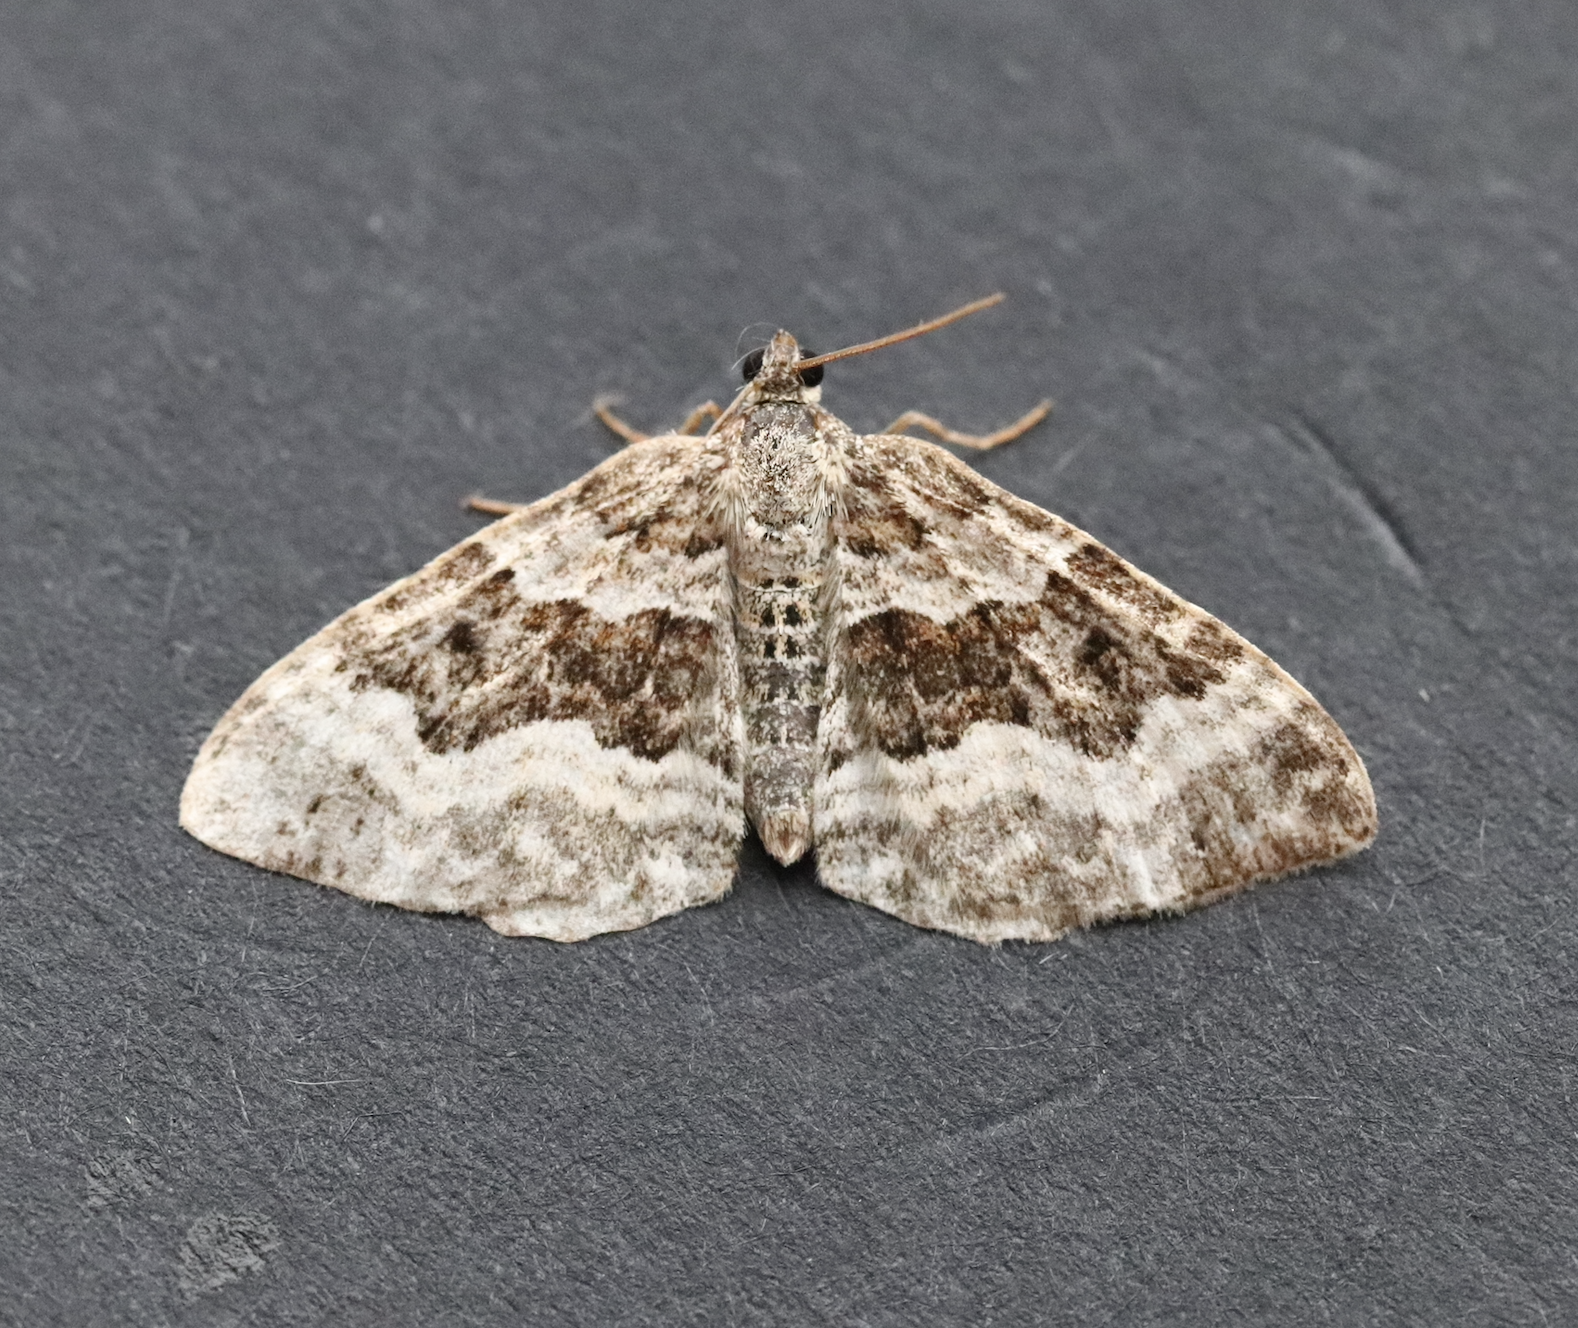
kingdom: Animalia
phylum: Arthropoda
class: Insecta
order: Lepidoptera
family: Geometridae
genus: Epirrhoe
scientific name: Epirrhoe alternata
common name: Common carpet
